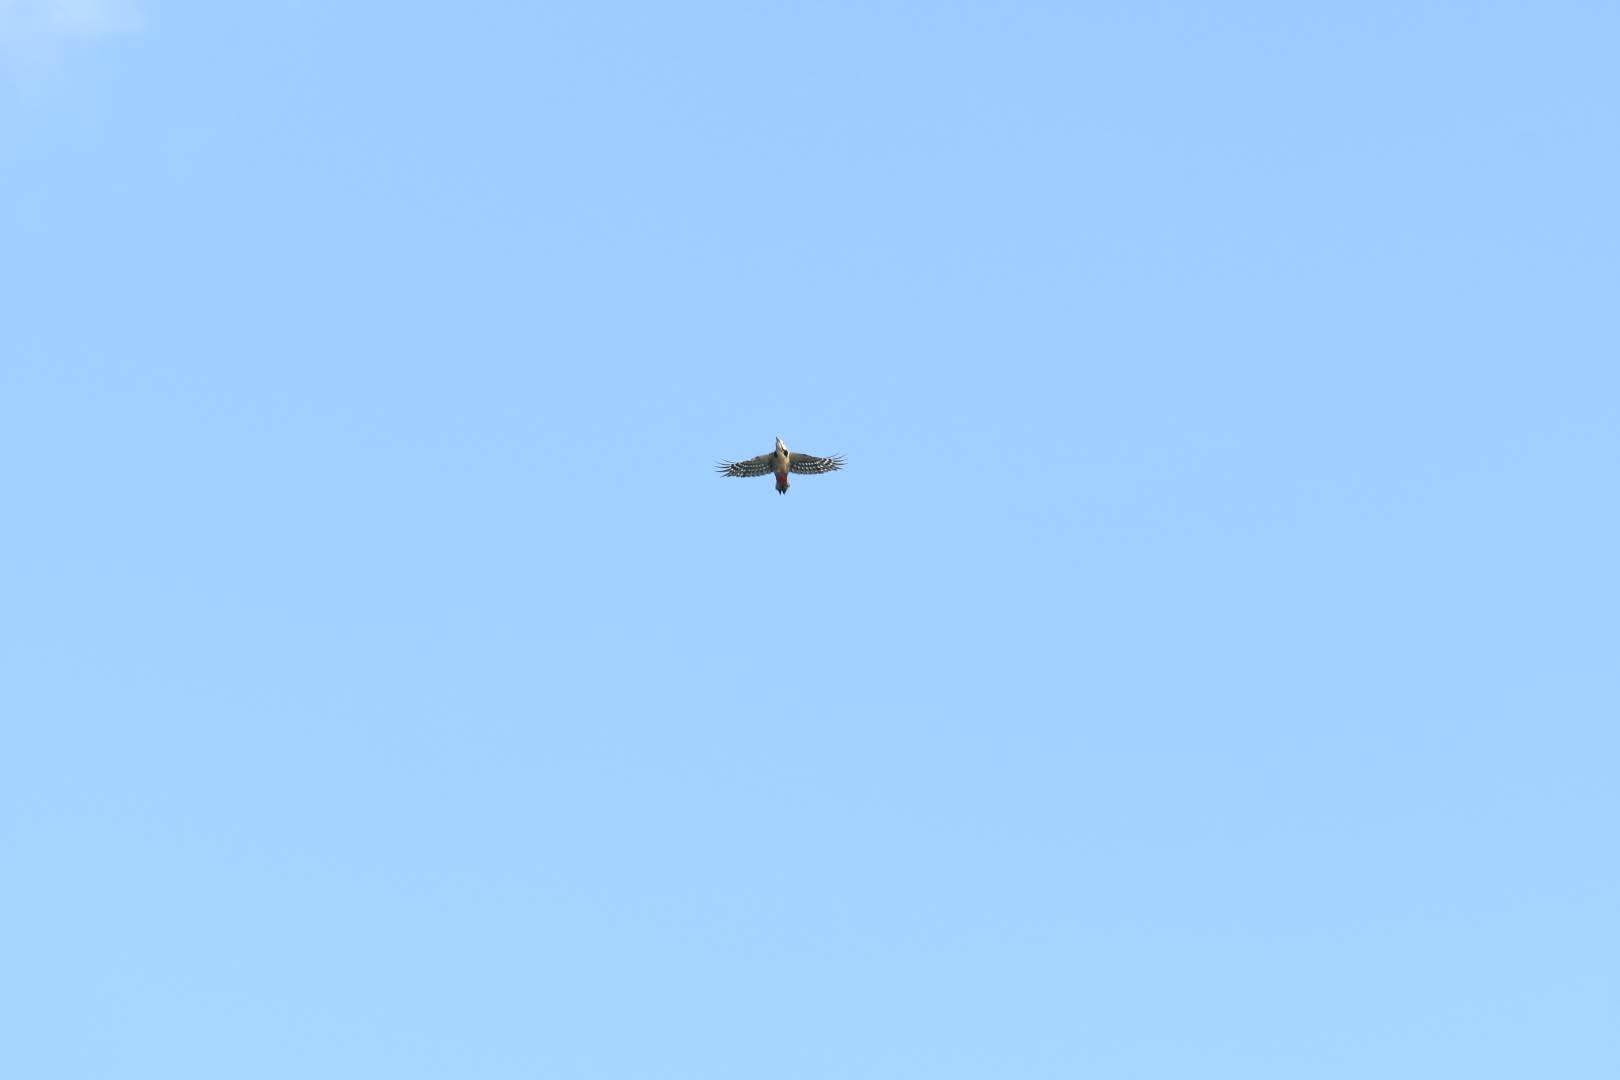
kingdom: Animalia
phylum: Chordata
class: Aves
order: Piciformes
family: Picidae
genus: Dendrocopos
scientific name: Dendrocopos major
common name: Great spotted woodpecker
